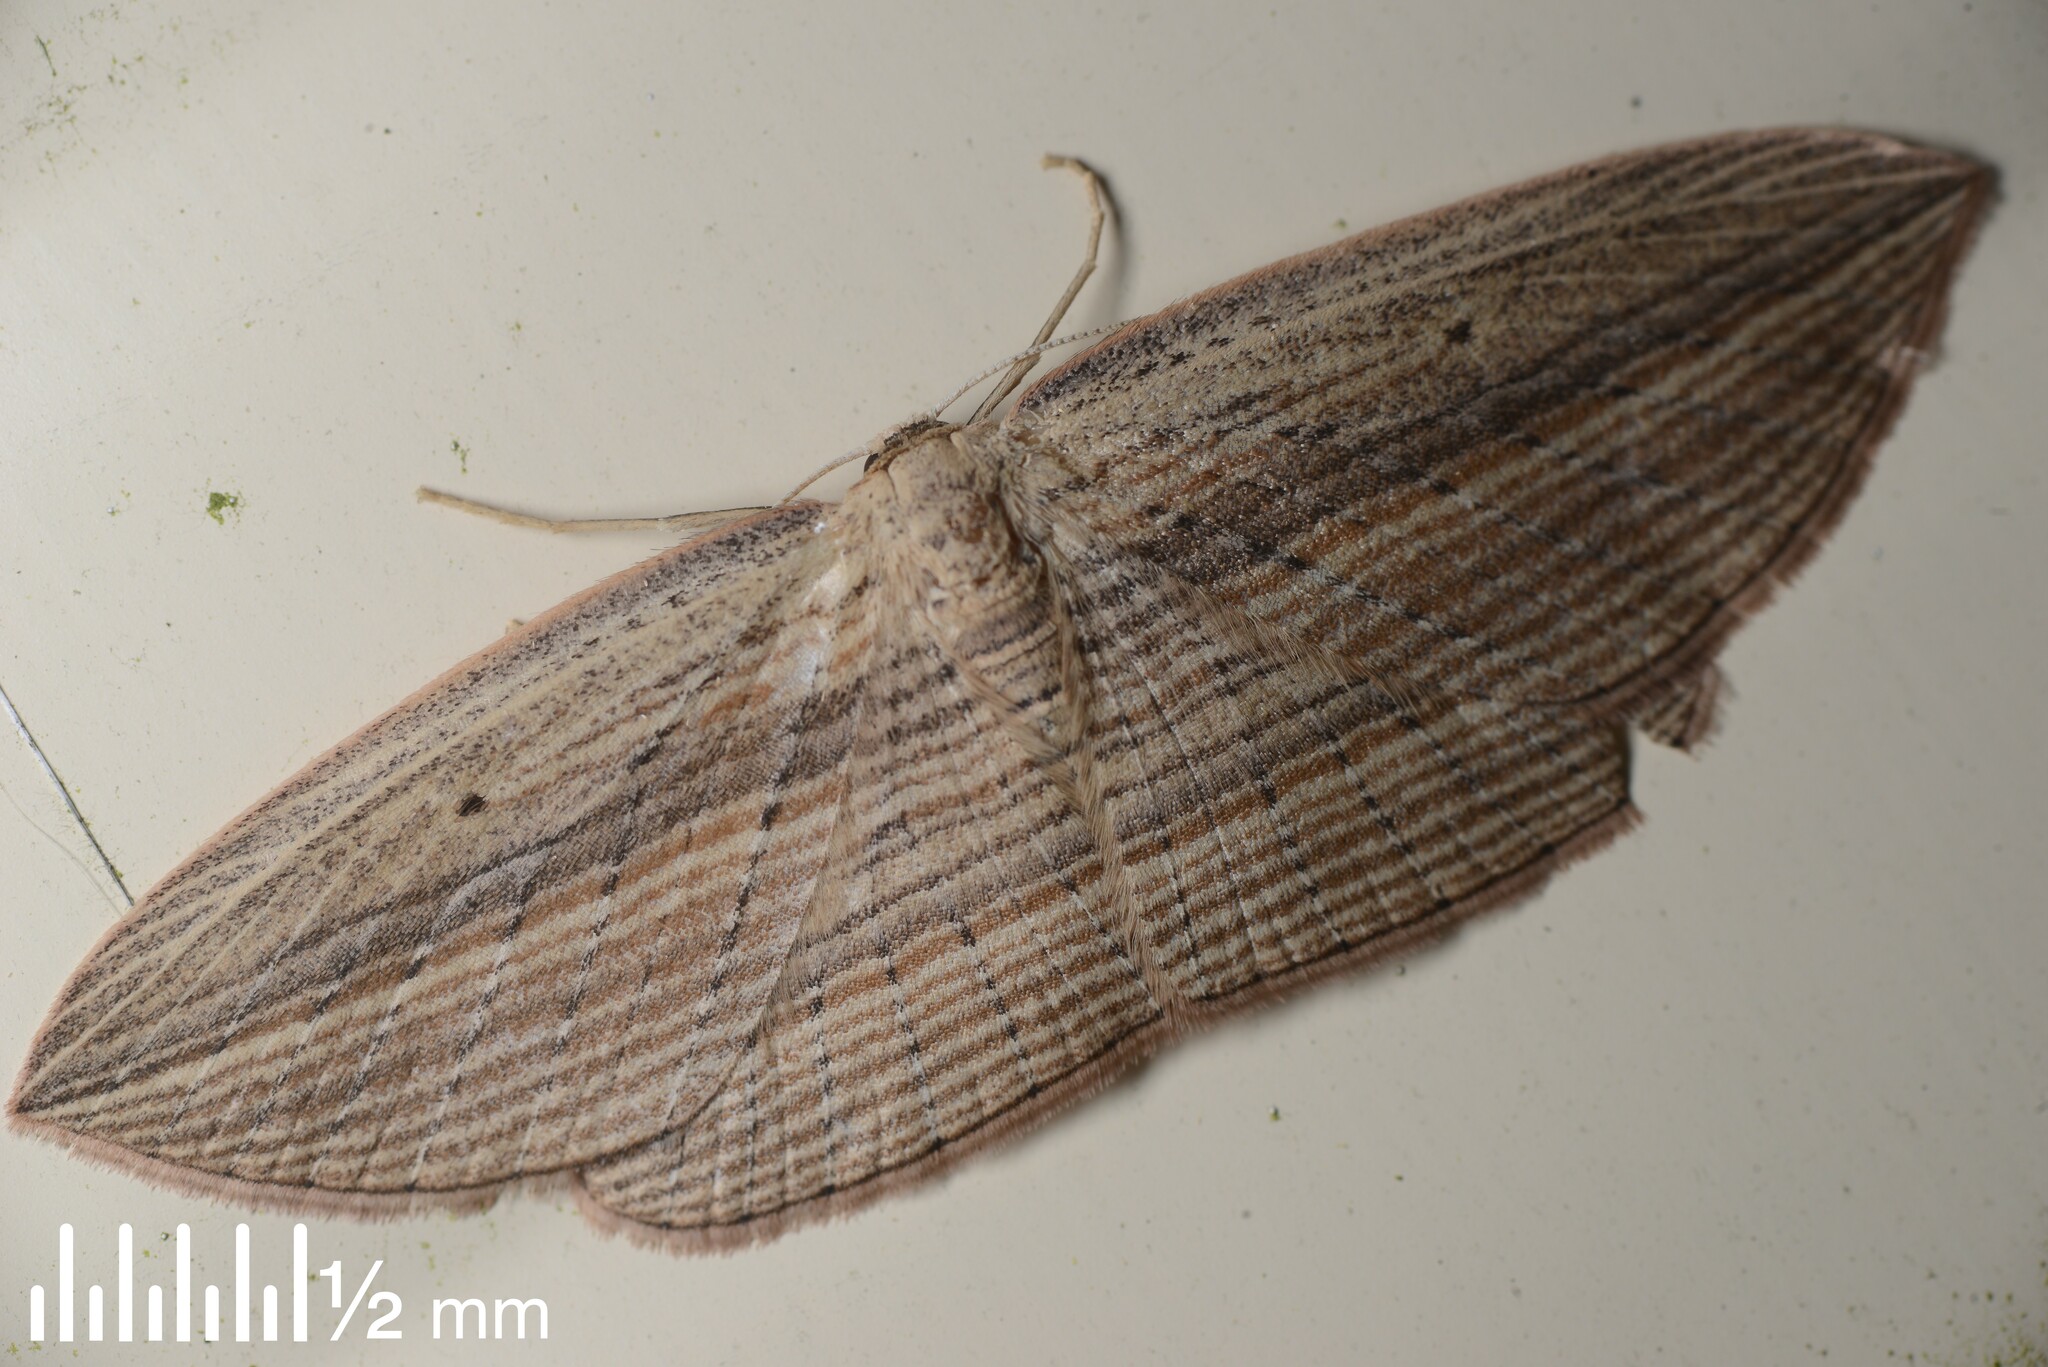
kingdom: Animalia
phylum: Arthropoda
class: Insecta
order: Lepidoptera
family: Geometridae
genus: Epiphryne
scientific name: Epiphryne verriculata
